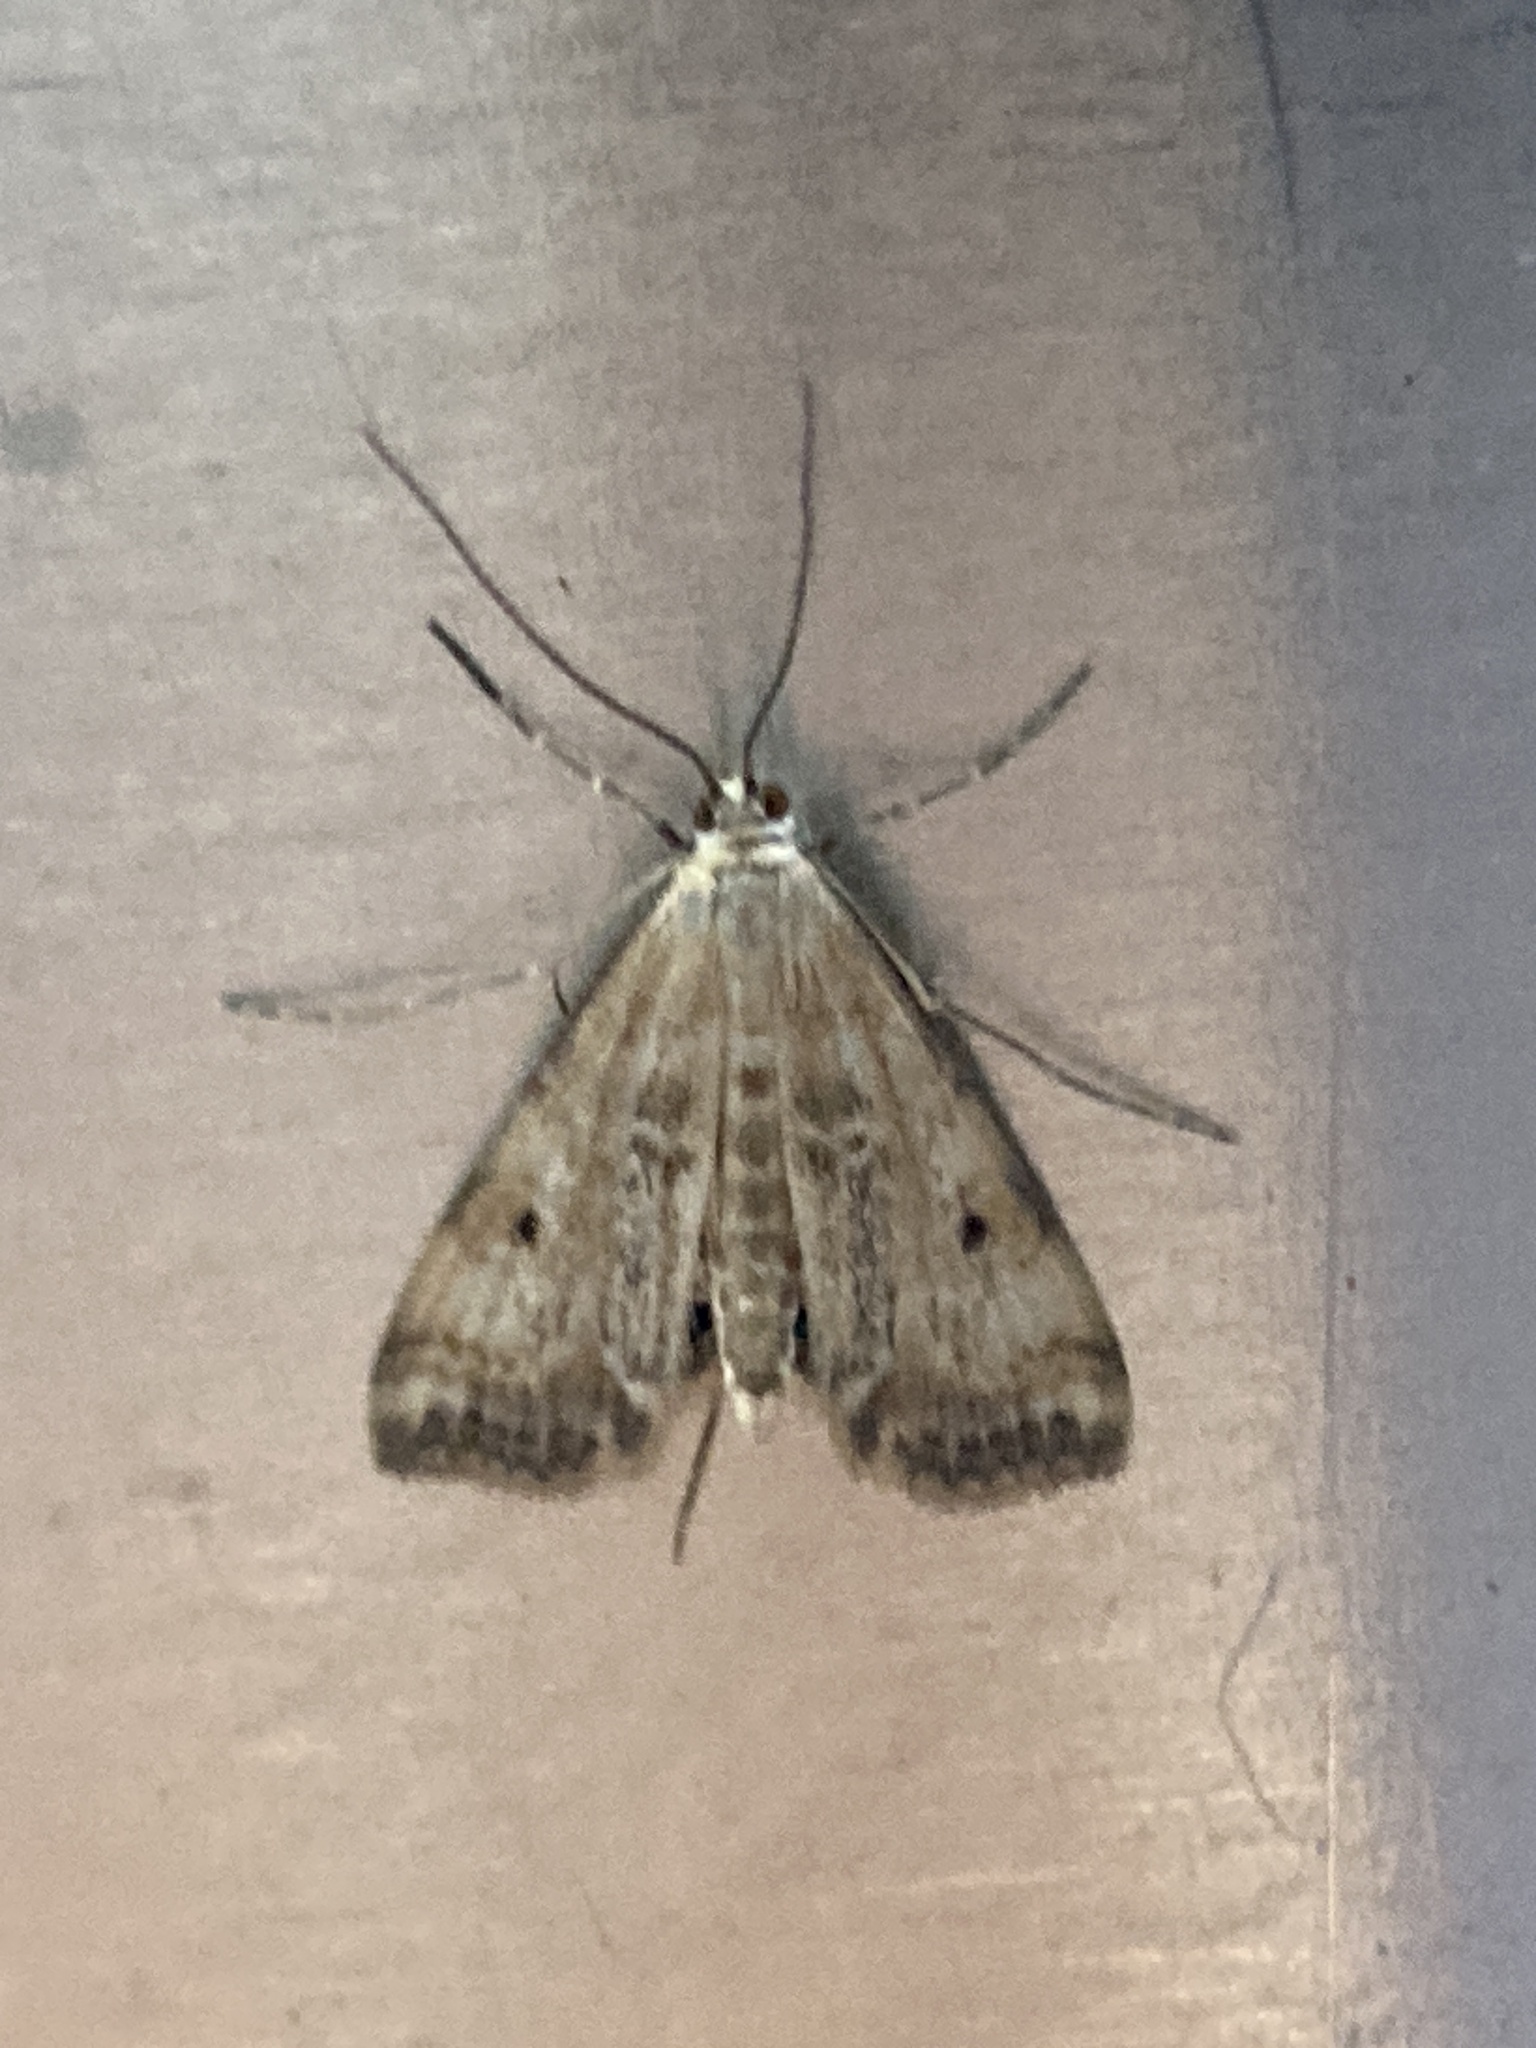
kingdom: Animalia
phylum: Arthropoda
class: Insecta
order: Lepidoptera
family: Crambidae
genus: Cataclysta
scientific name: Cataclysta lemnata
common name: Small china-mark
